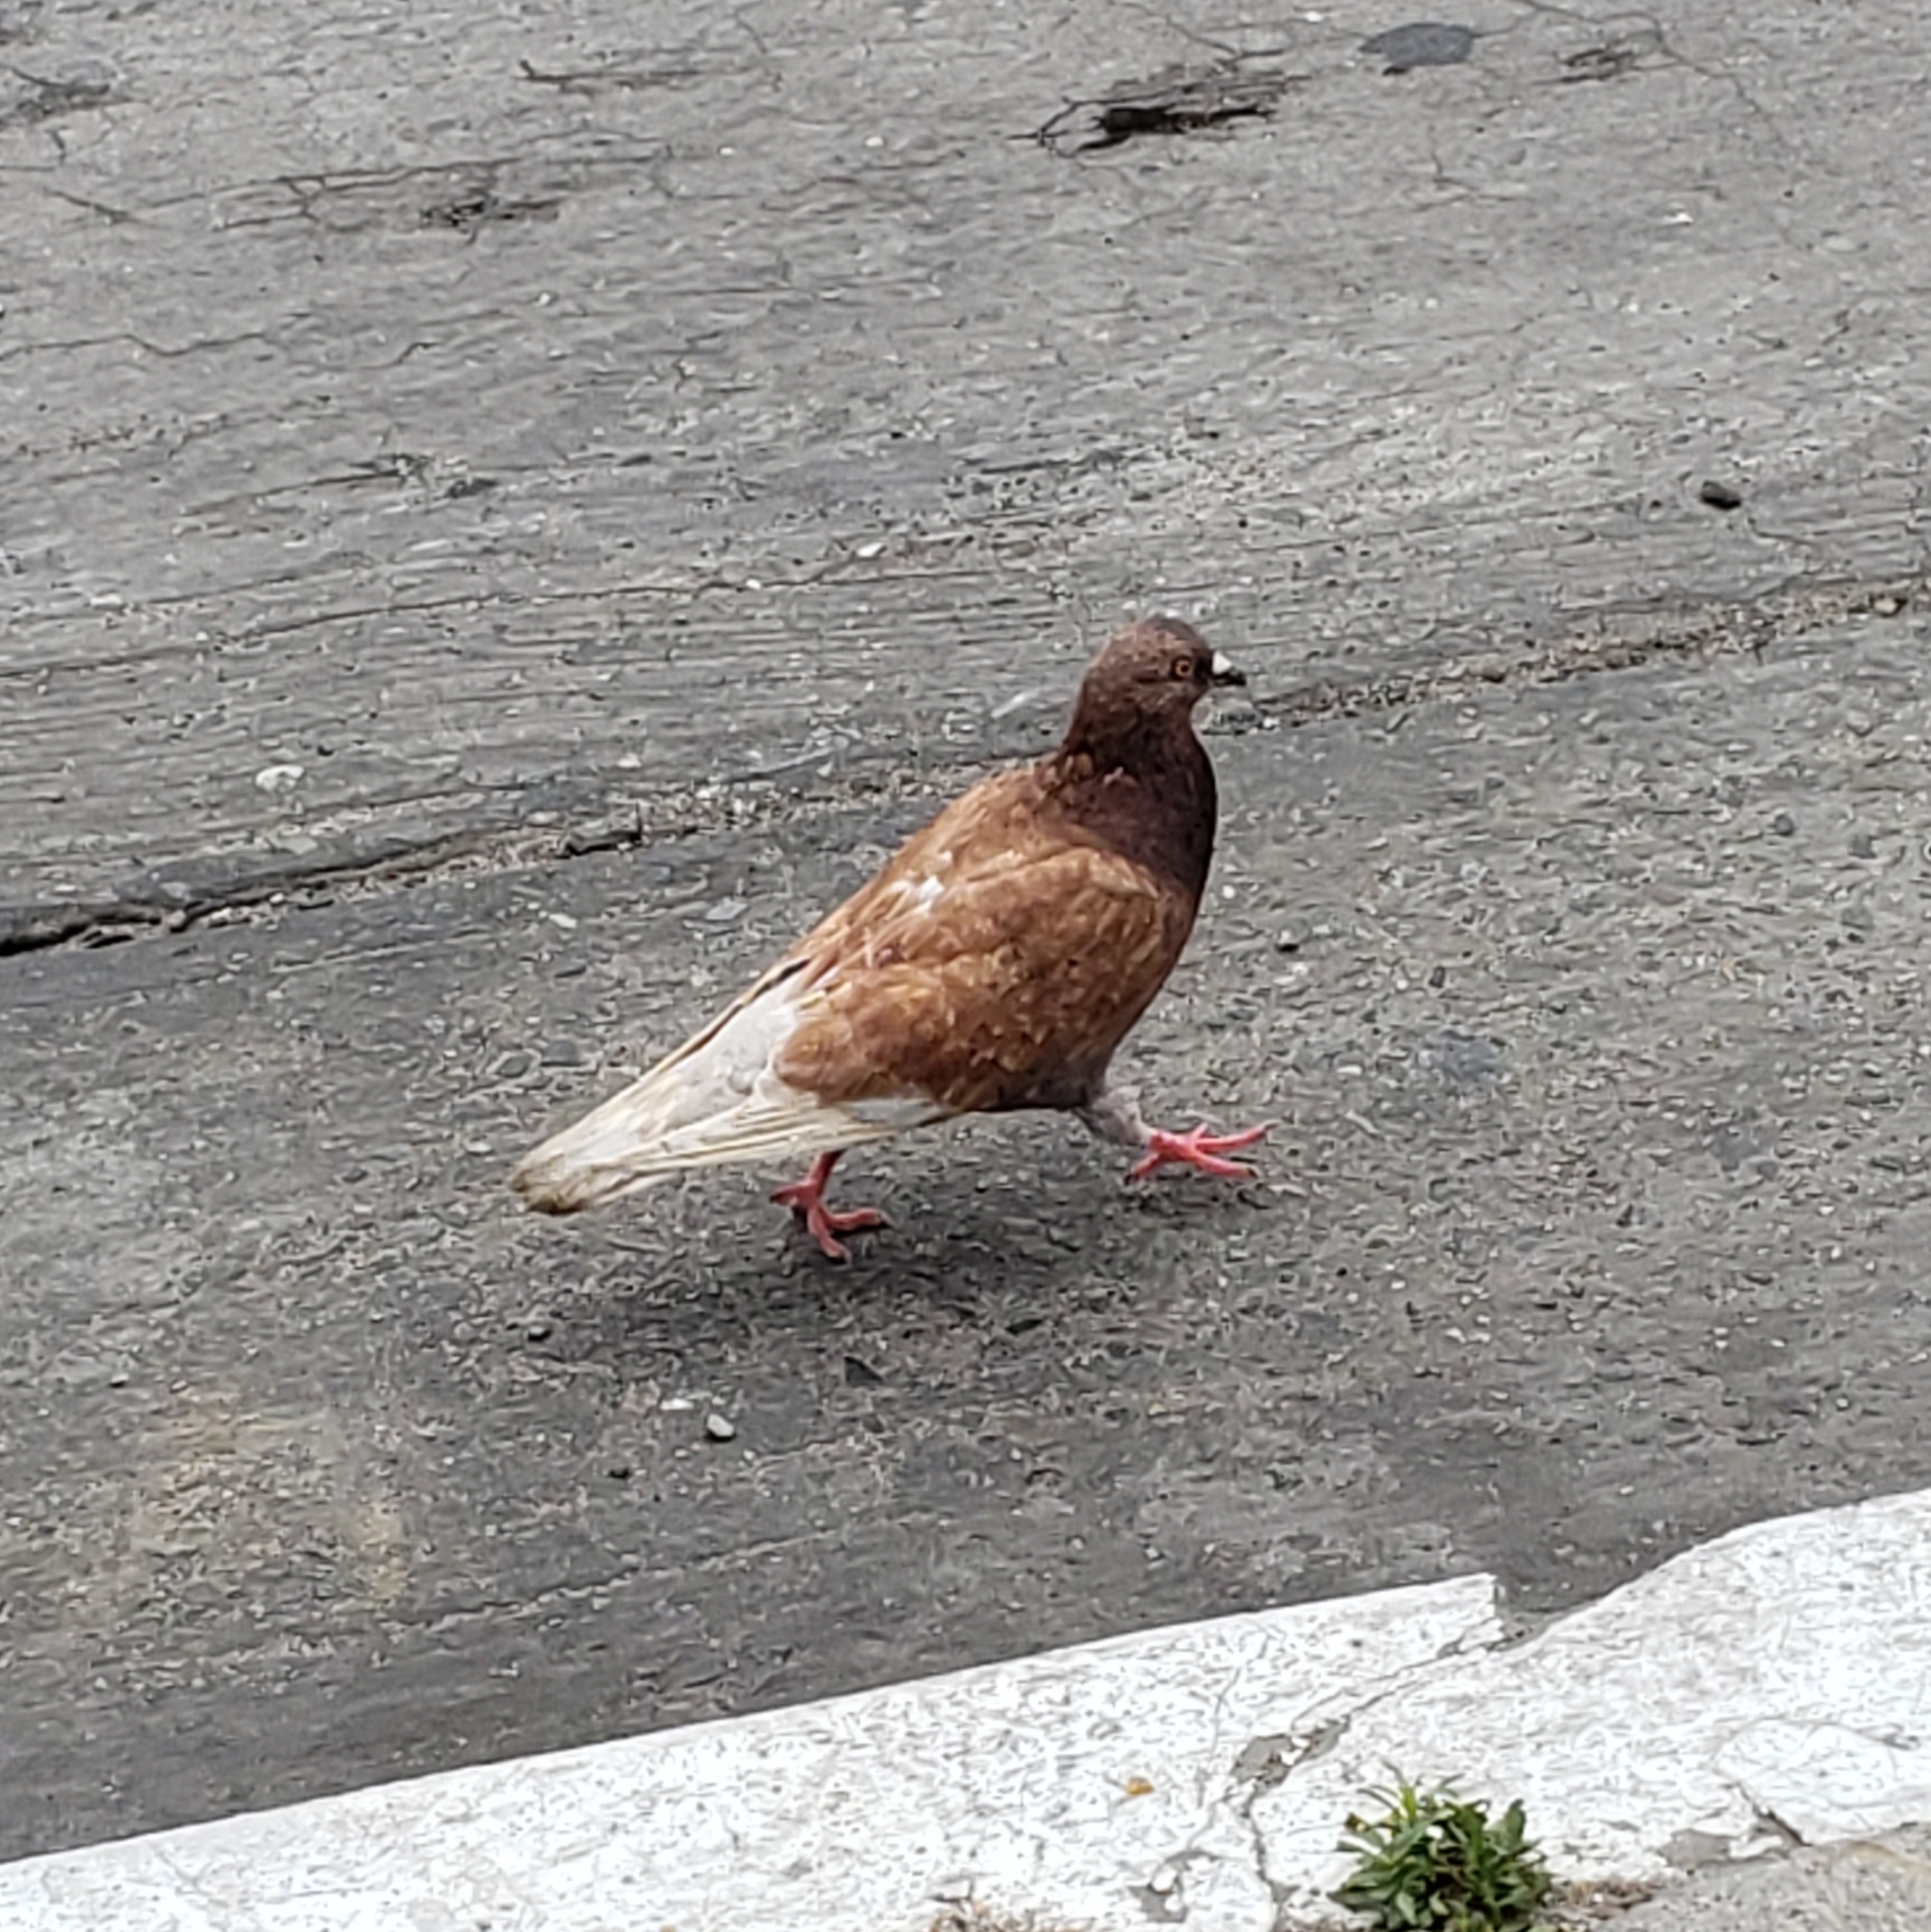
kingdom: Animalia
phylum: Chordata
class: Aves
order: Columbiformes
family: Columbidae
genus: Columba
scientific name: Columba livia
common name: Rock pigeon
